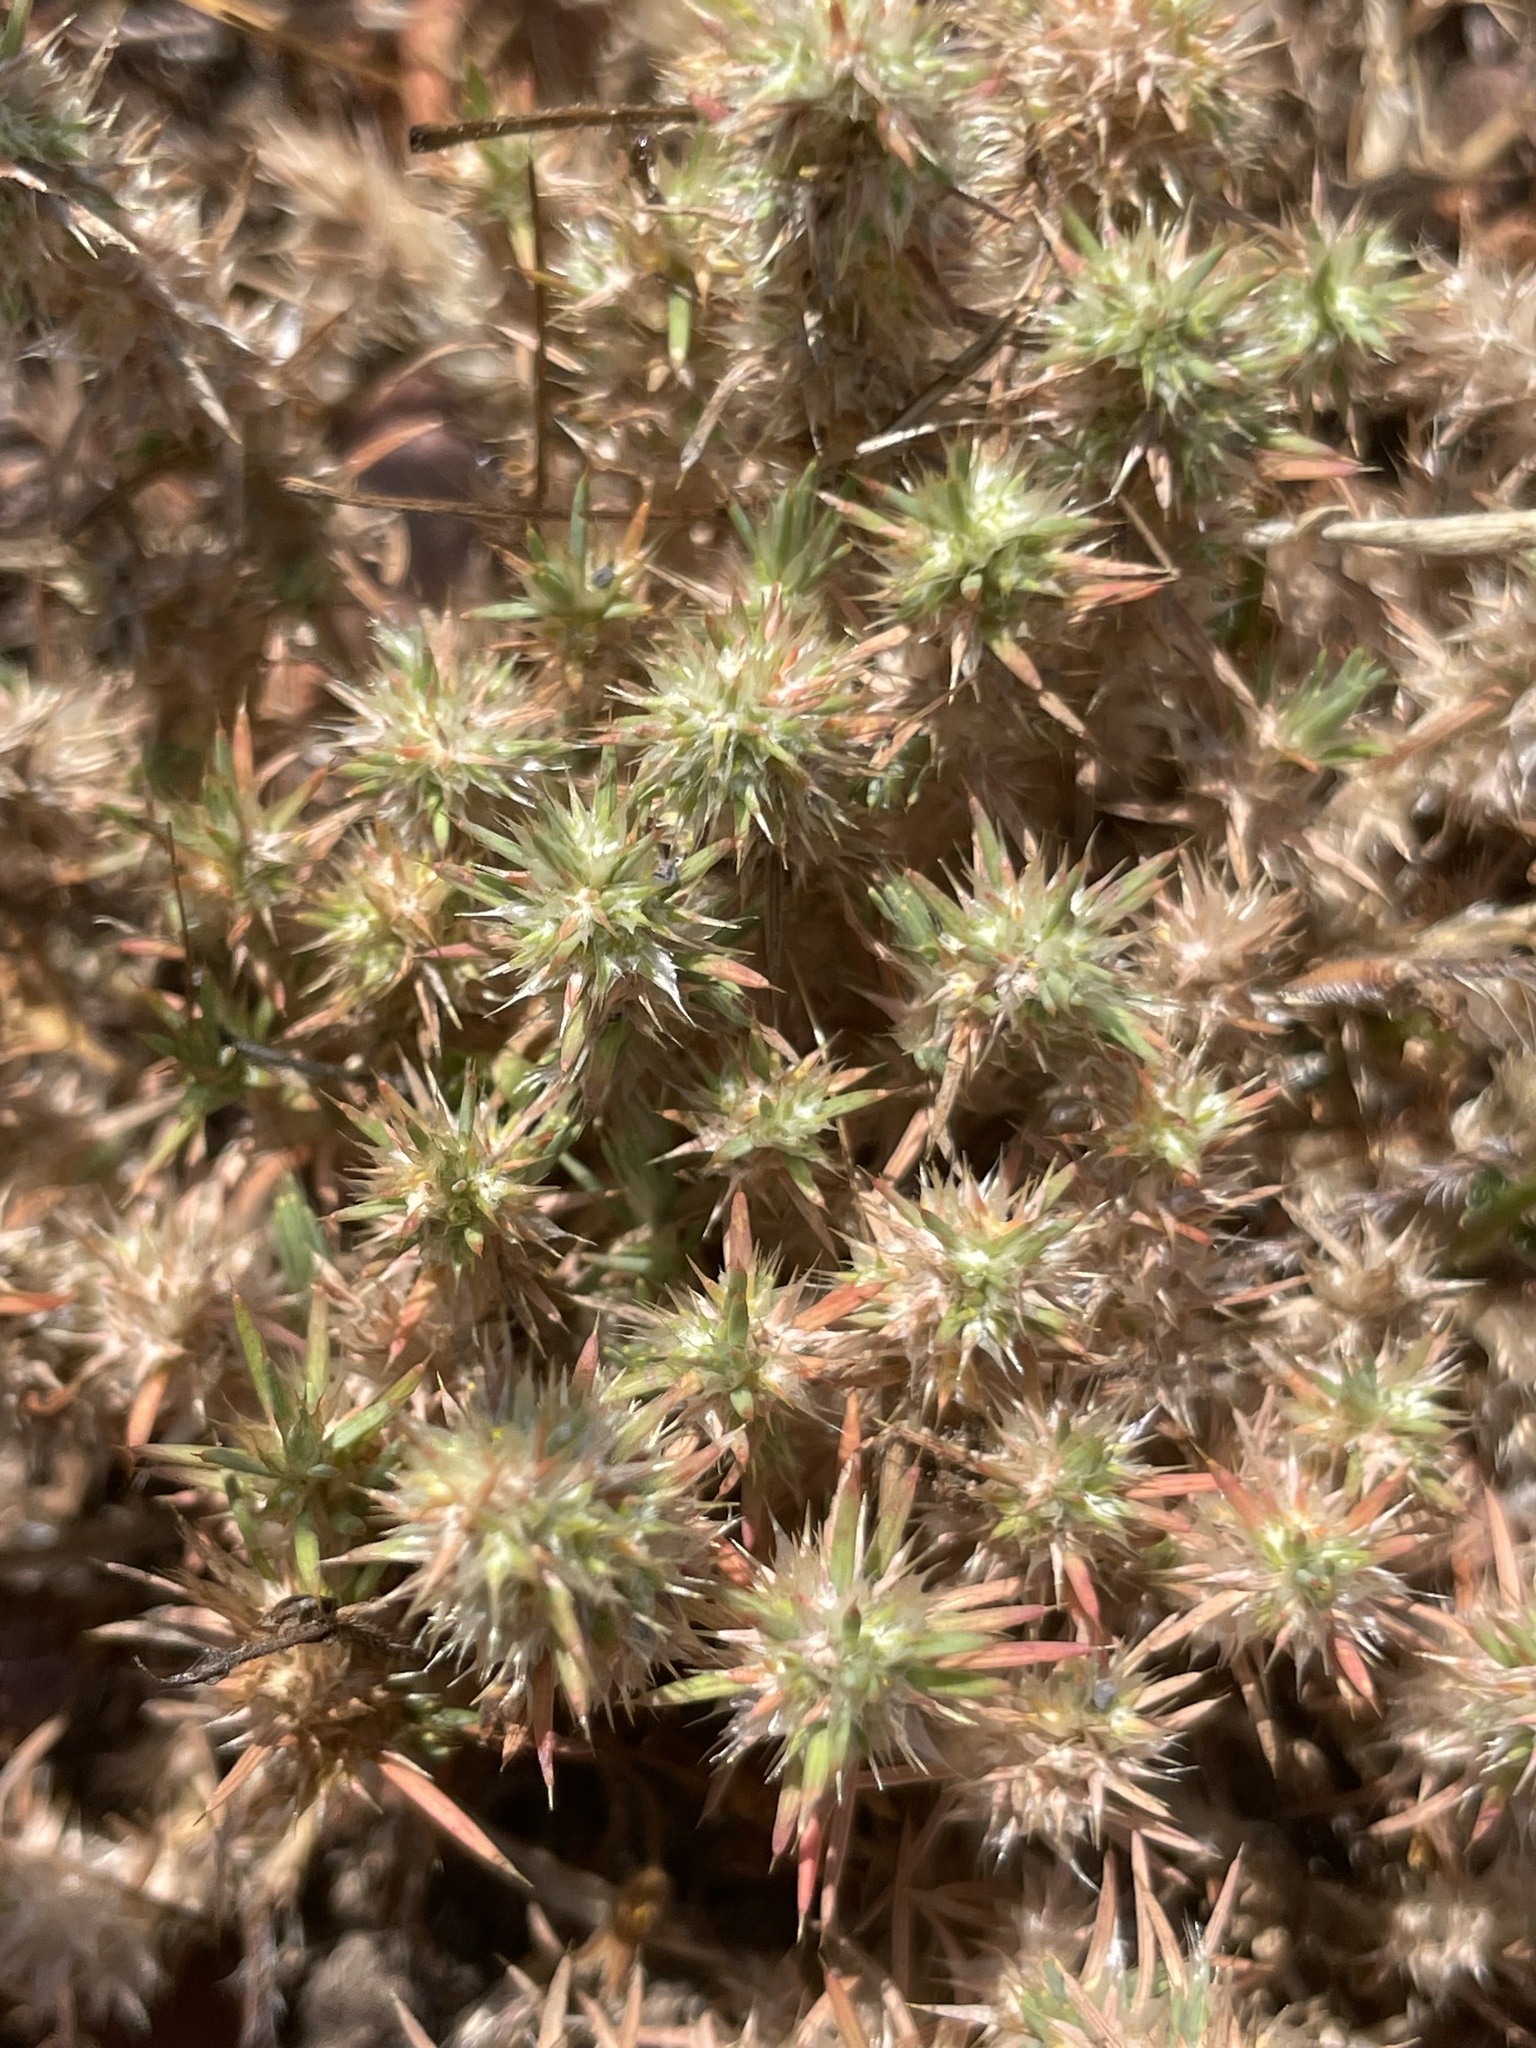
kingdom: Plantae
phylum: Tracheophyta
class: Magnoliopsida
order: Caryophyllales
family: Caryophyllaceae
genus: Cardionema
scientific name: Cardionema ramosissima
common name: Sandcarpet
